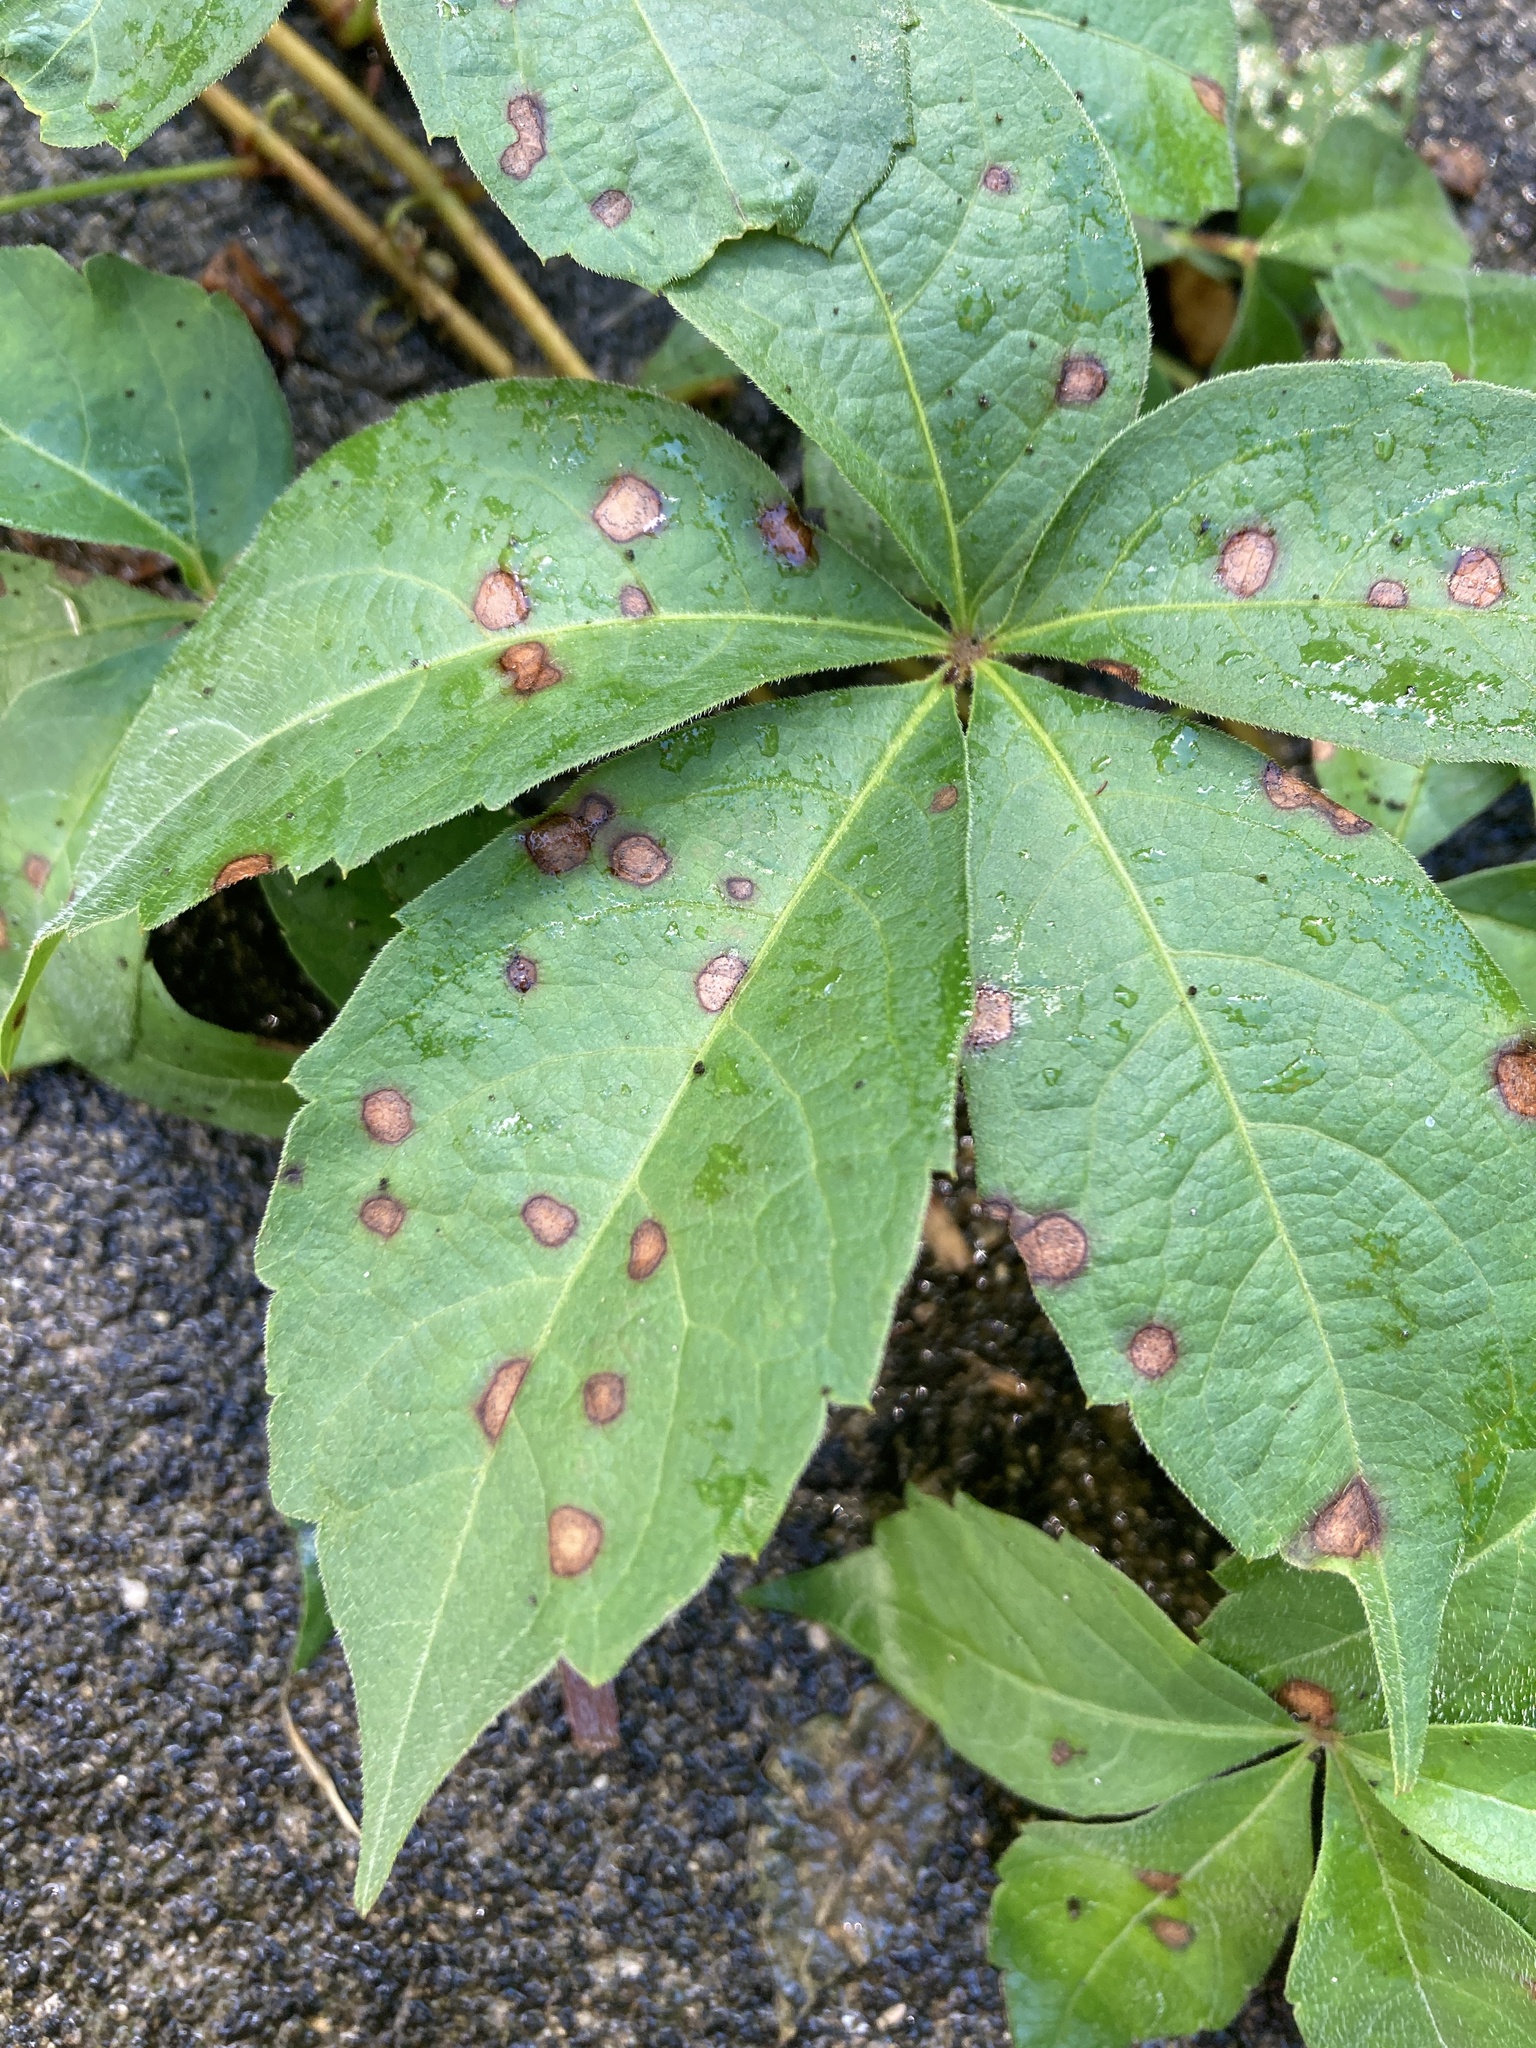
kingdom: Fungi
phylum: Ascomycota
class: Dothideomycetes
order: Botryosphaeriales
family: Phyllostictaceae
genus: Phyllosticta
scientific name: Phyllosticta parthenocissi
